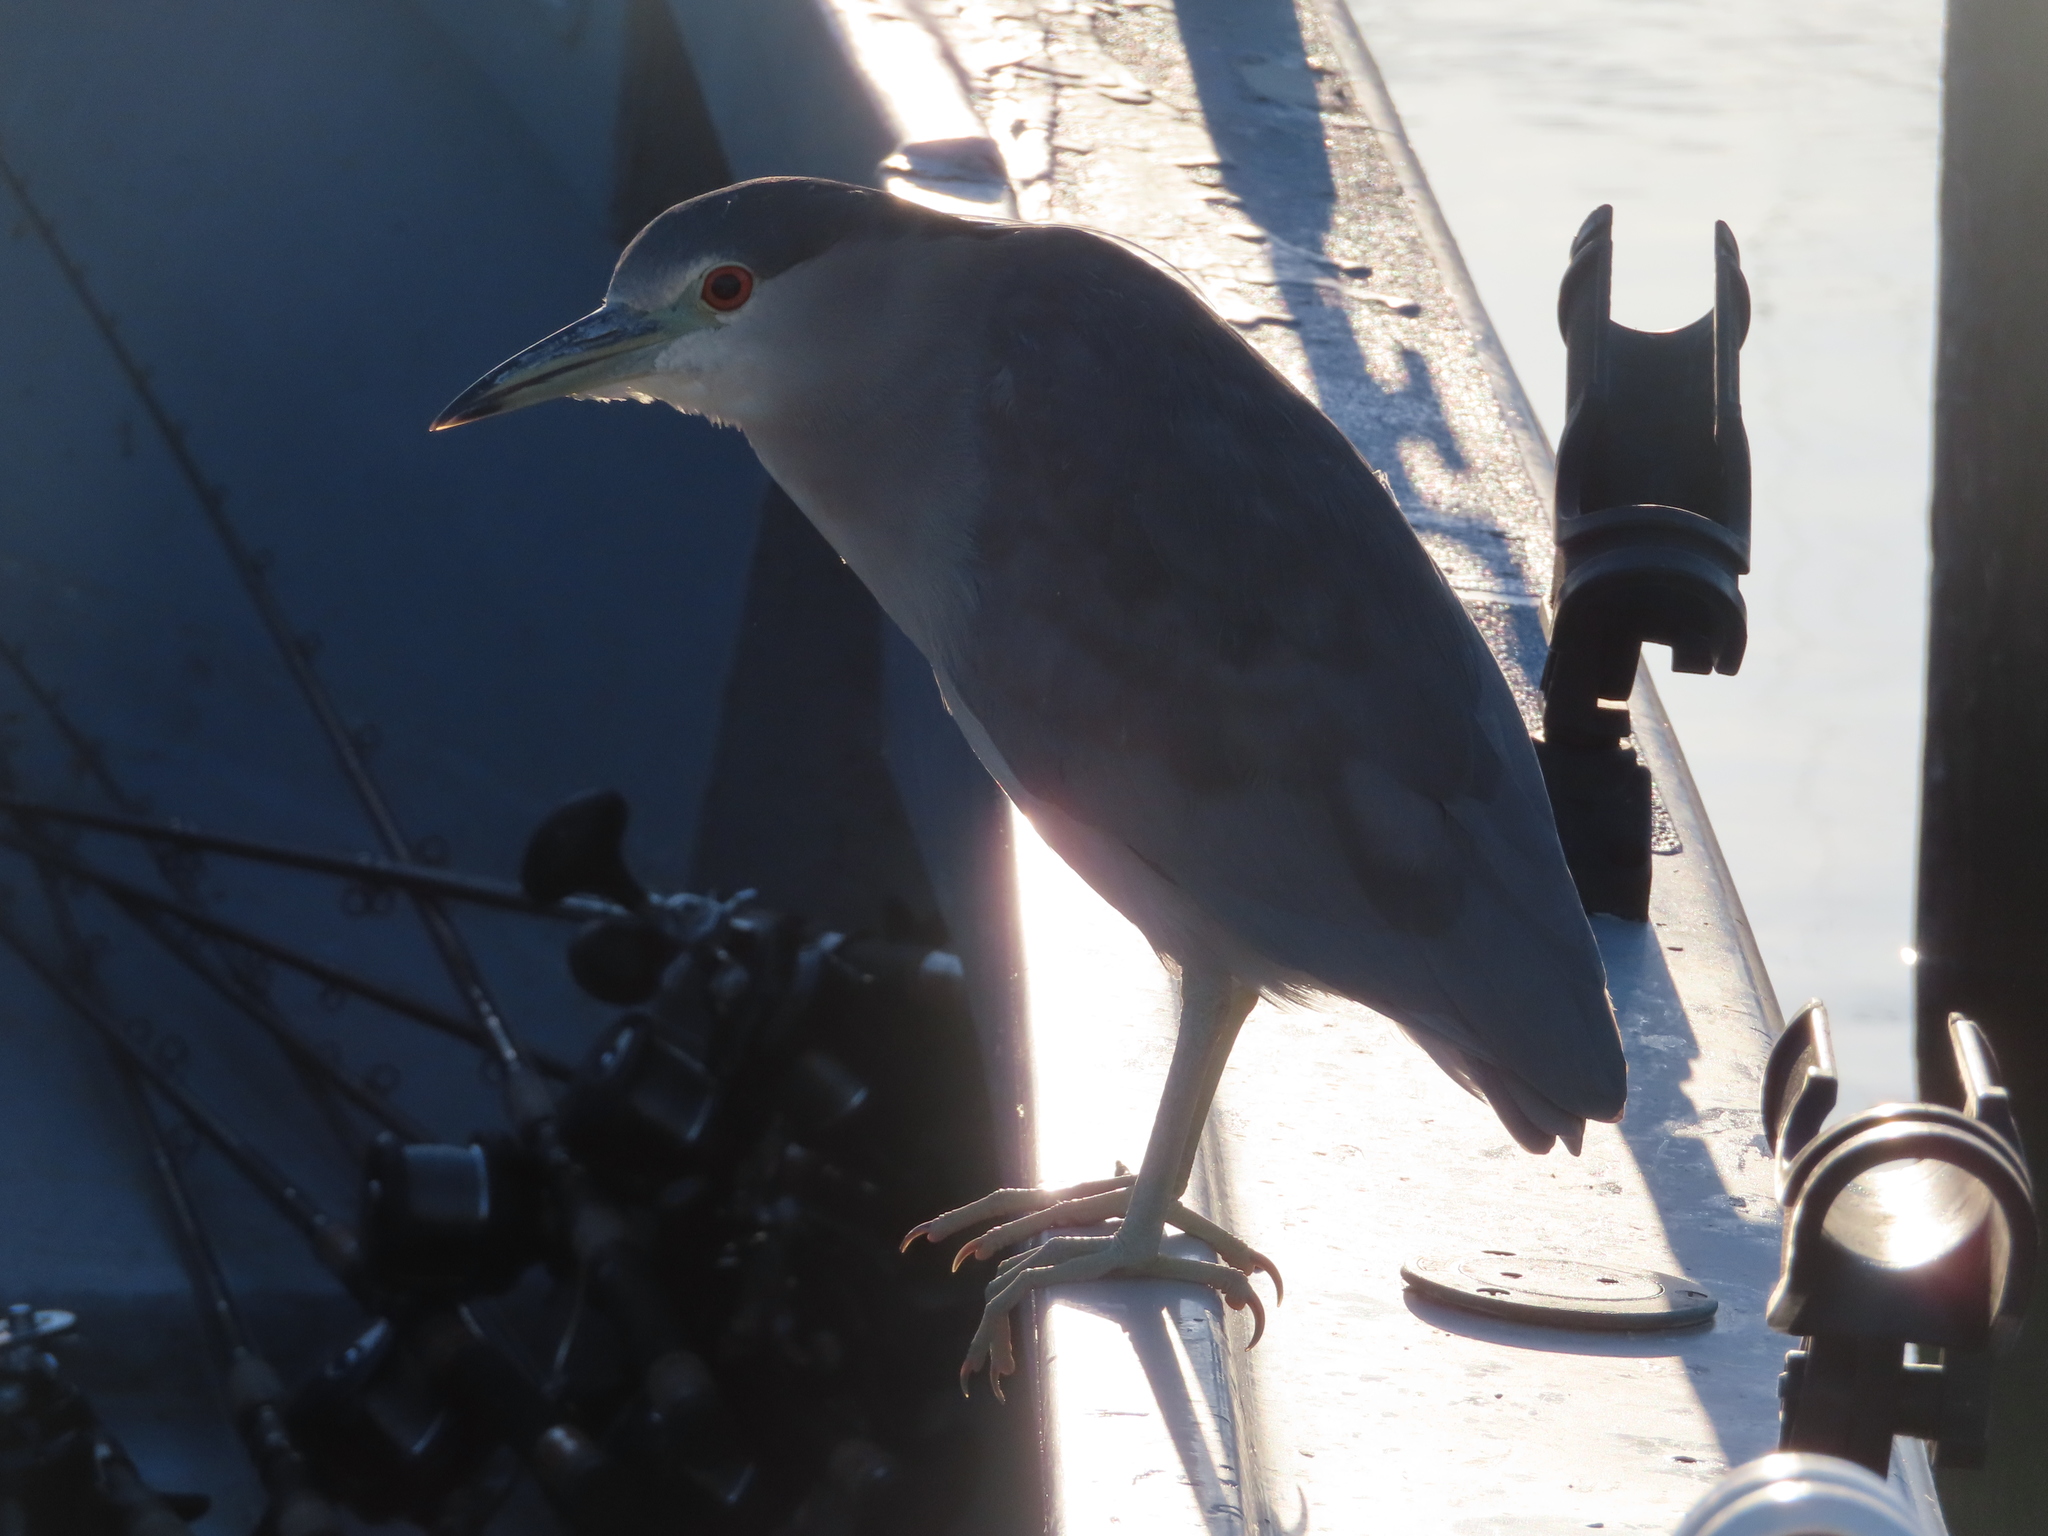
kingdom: Animalia
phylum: Chordata
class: Aves
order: Pelecaniformes
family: Ardeidae
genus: Nycticorax
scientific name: Nycticorax nycticorax
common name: Black-crowned night heron
